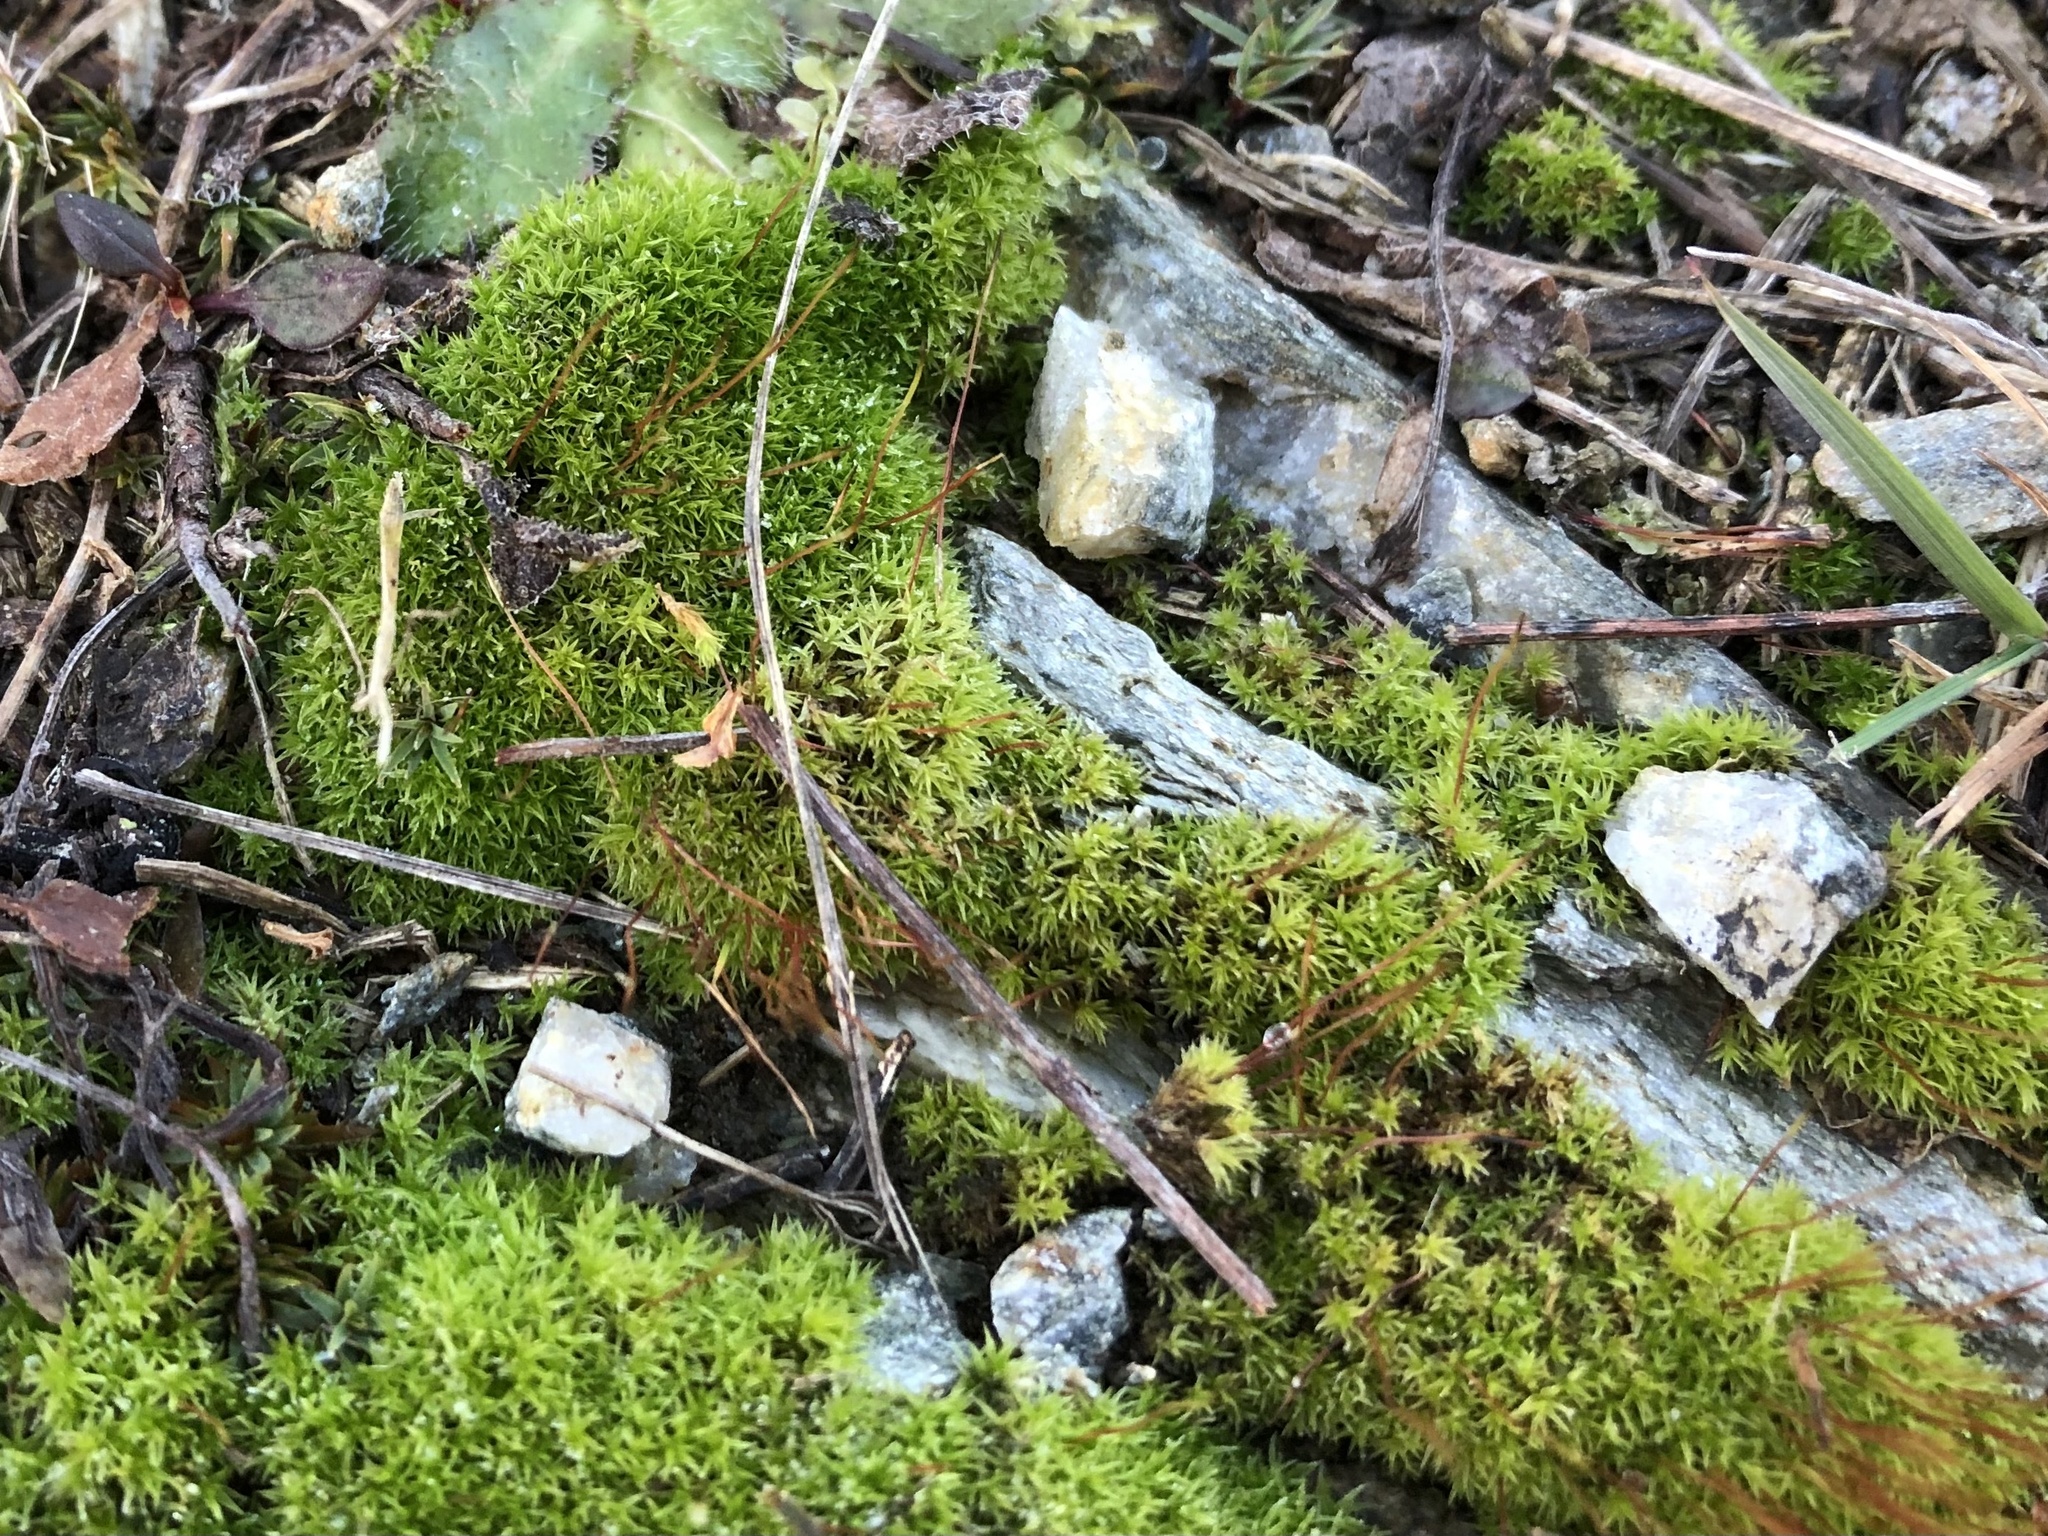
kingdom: Plantae
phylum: Bryophyta
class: Bryopsida
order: Dicranales
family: Ditrichaceae
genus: Ceratodon
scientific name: Ceratodon purpureus
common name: Redshank
